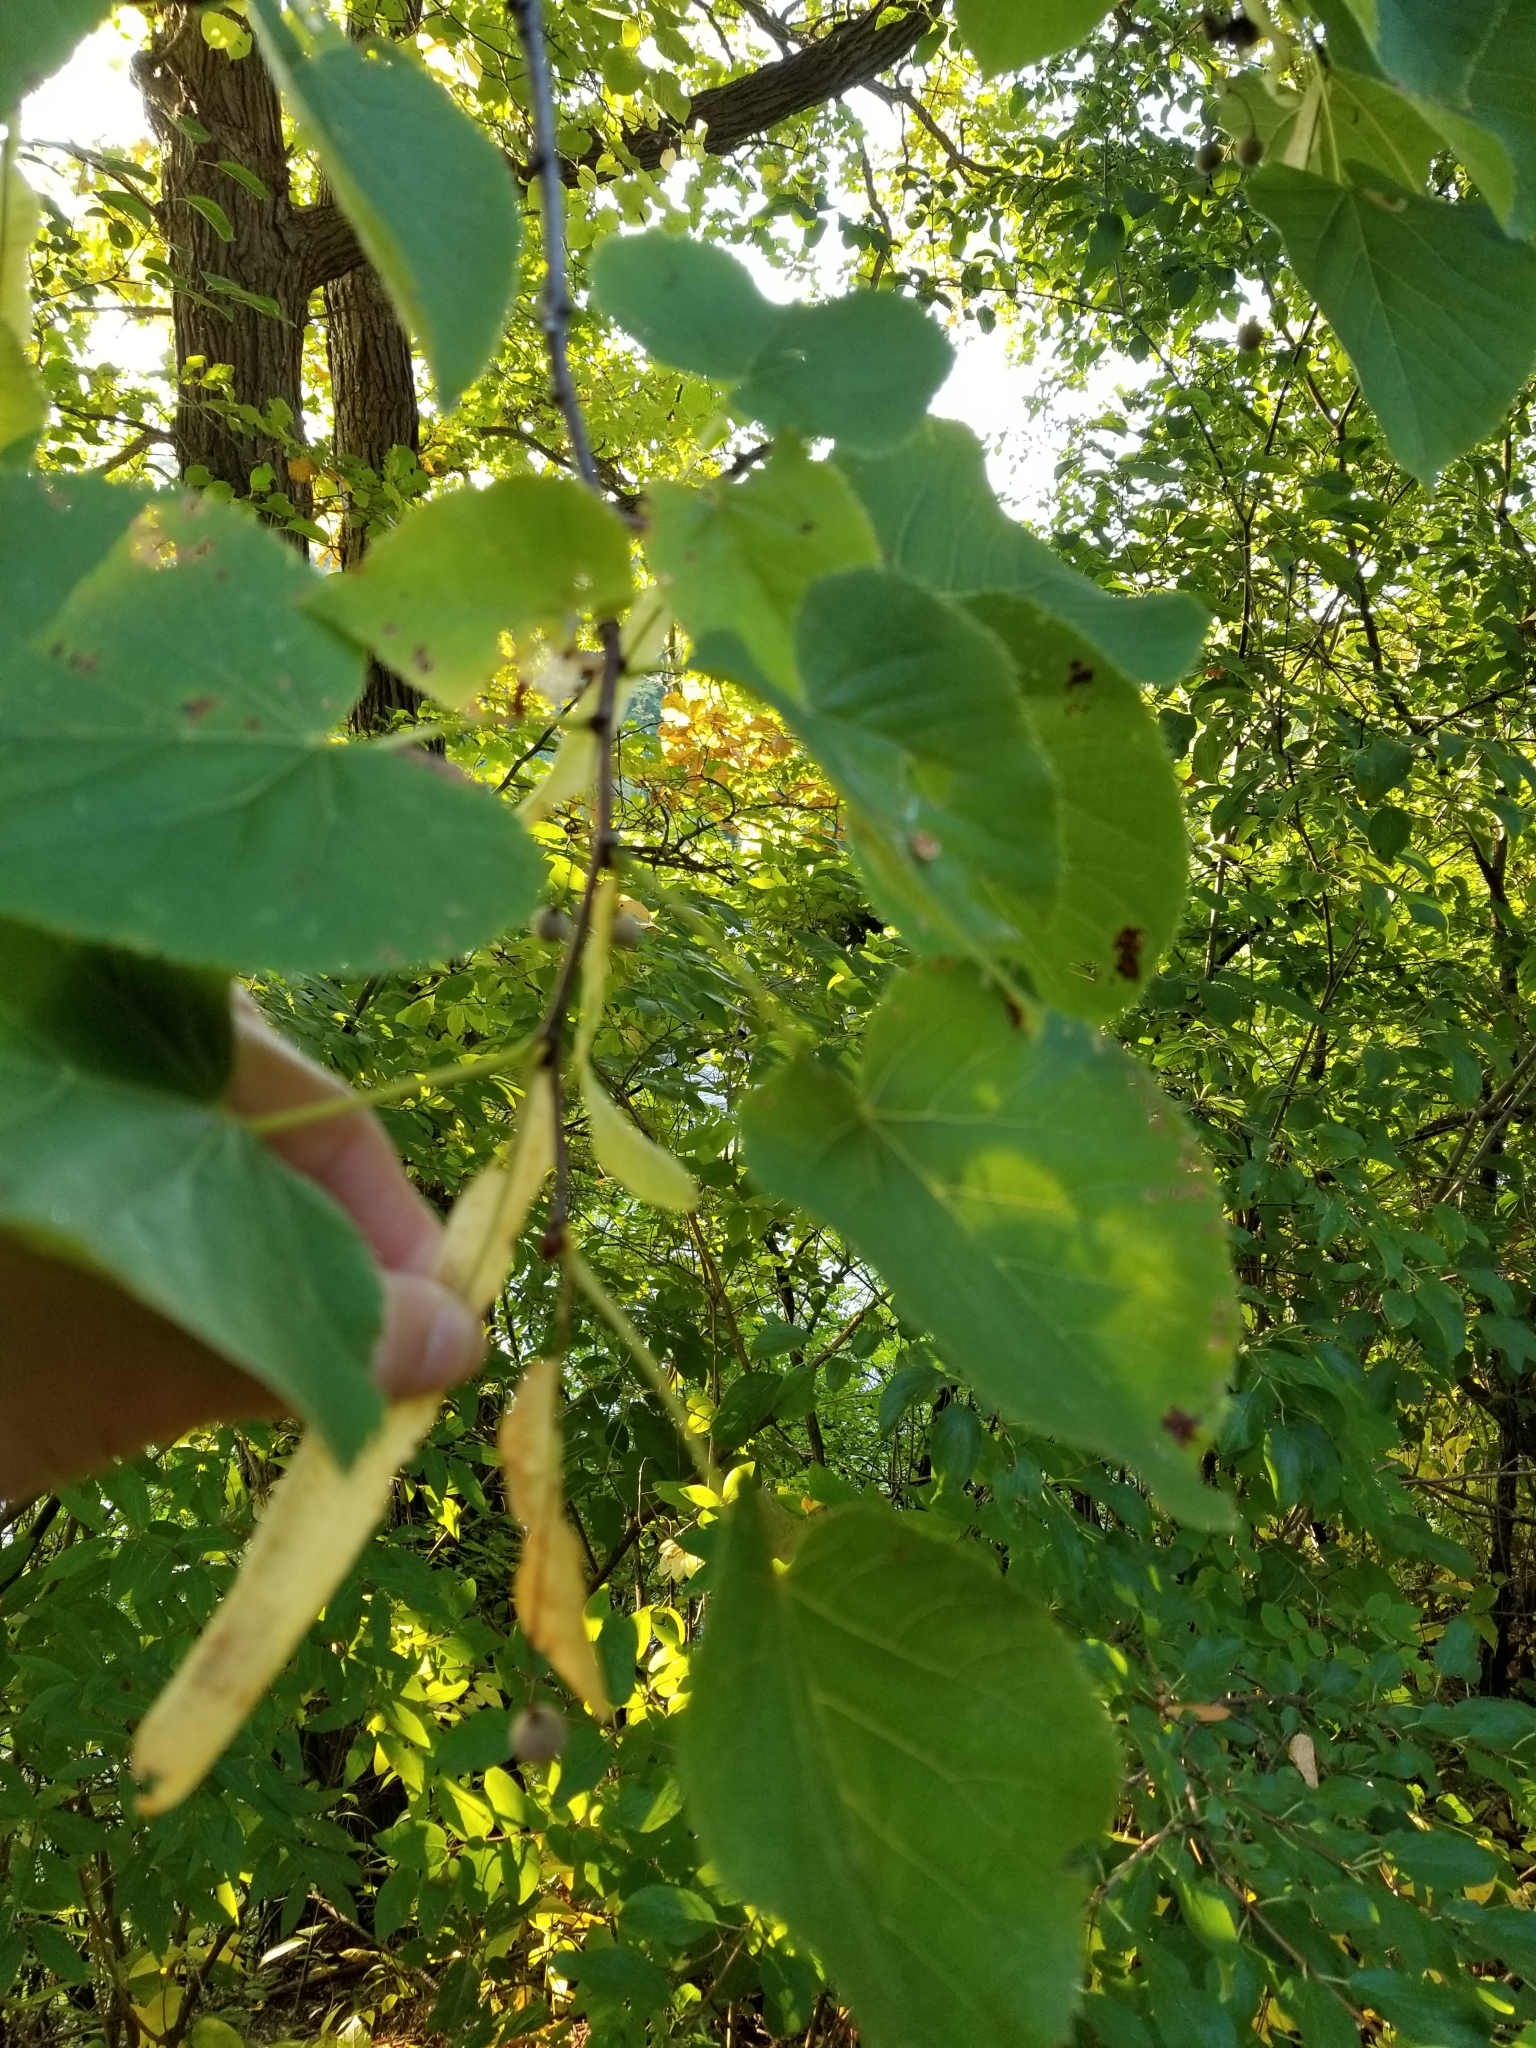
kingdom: Plantae
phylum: Tracheophyta
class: Magnoliopsida
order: Malvales
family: Malvaceae
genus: Tilia
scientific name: Tilia americana
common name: Basswood
